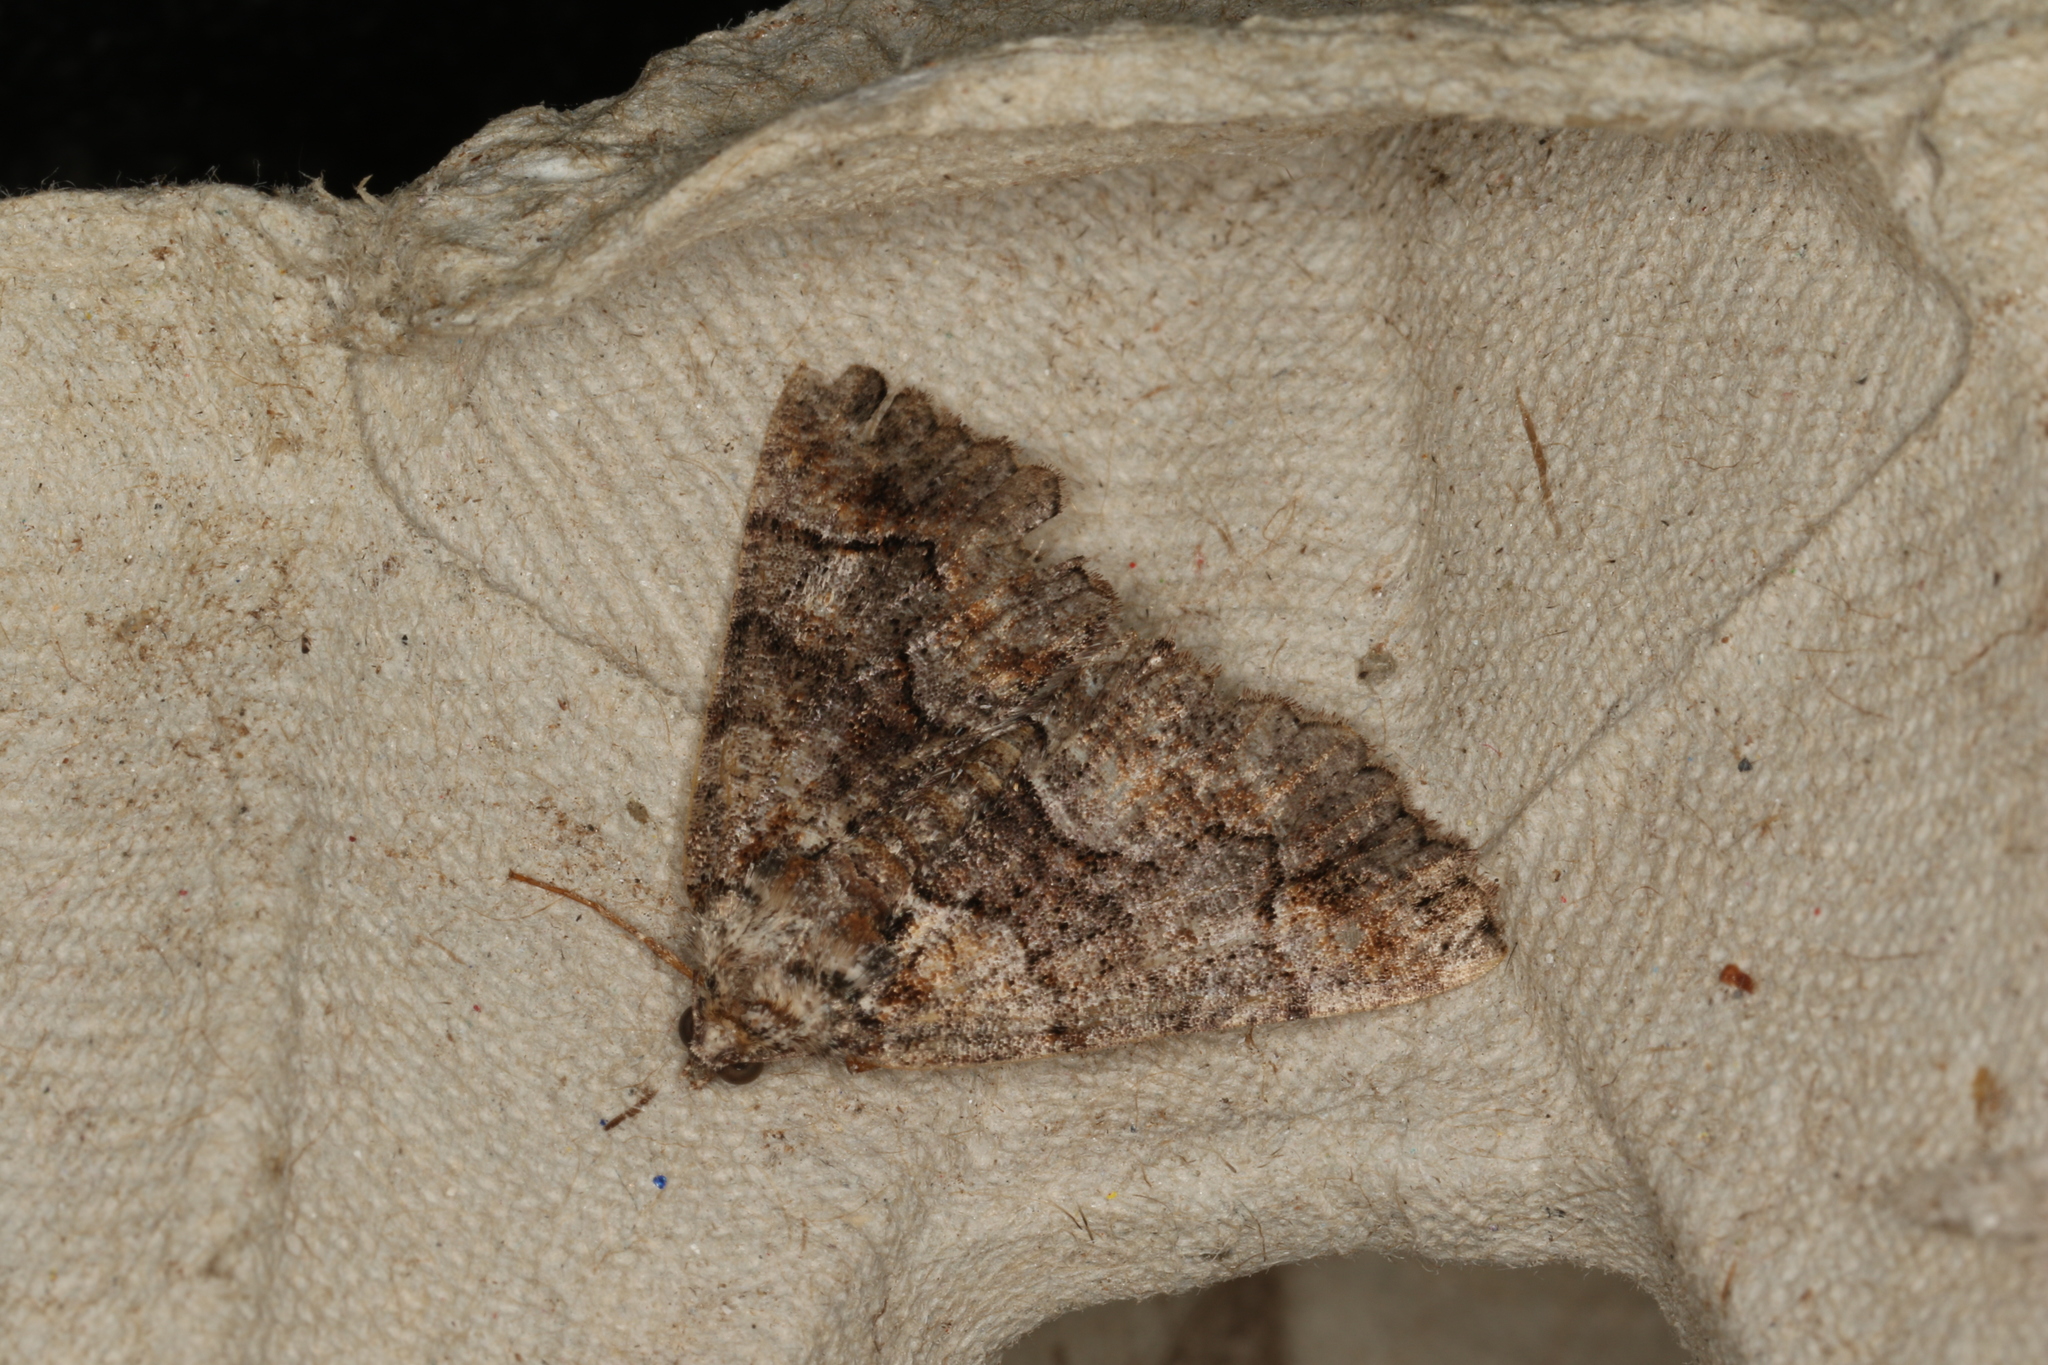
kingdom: Animalia
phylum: Arthropoda
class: Insecta
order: Lepidoptera
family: Geometridae
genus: Gastrina
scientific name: Gastrina cristaria
